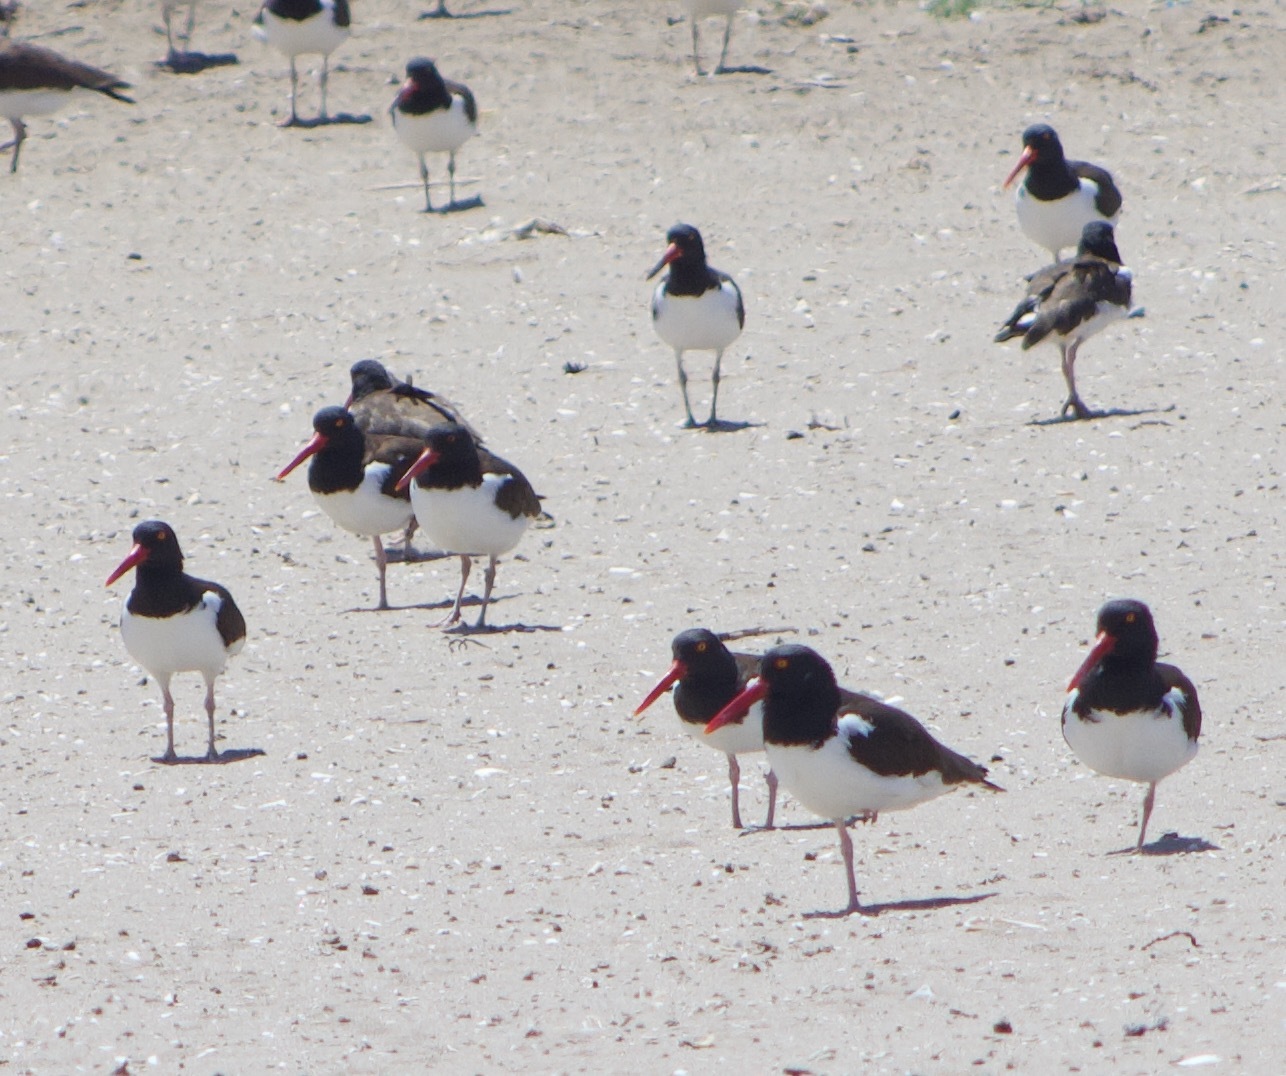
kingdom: Animalia
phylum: Chordata
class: Aves
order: Charadriiformes
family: Haematopodidae
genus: Haematopus
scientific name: Haematopus palliatus
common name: American oystercatcher
